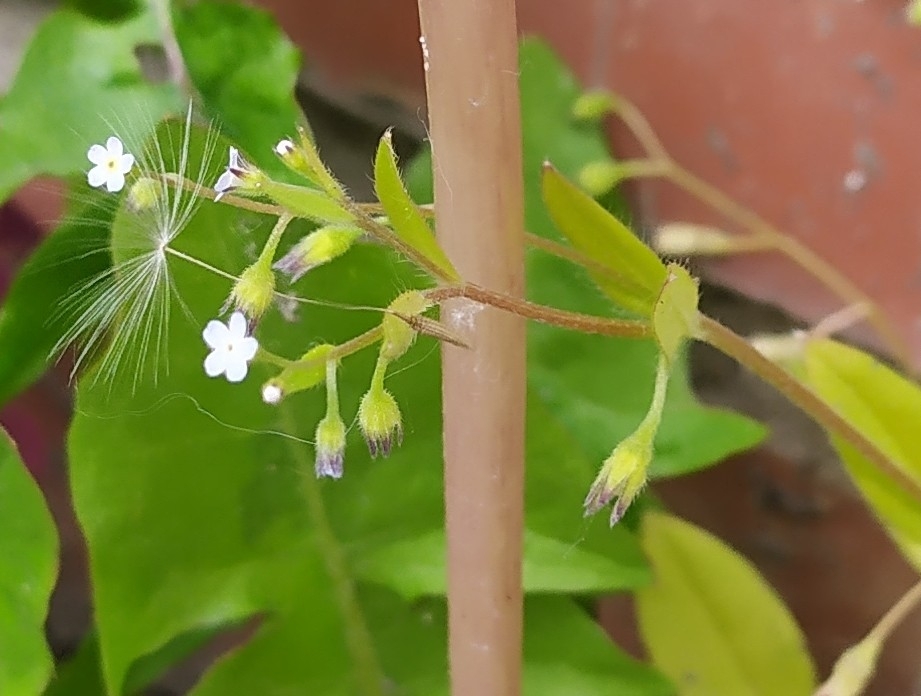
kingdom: Plantae
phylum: Tracheophyta
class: Magnoliopsida
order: Boraginales
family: Boraginaceae
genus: Myosotis
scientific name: Myosotis sparsiflora
